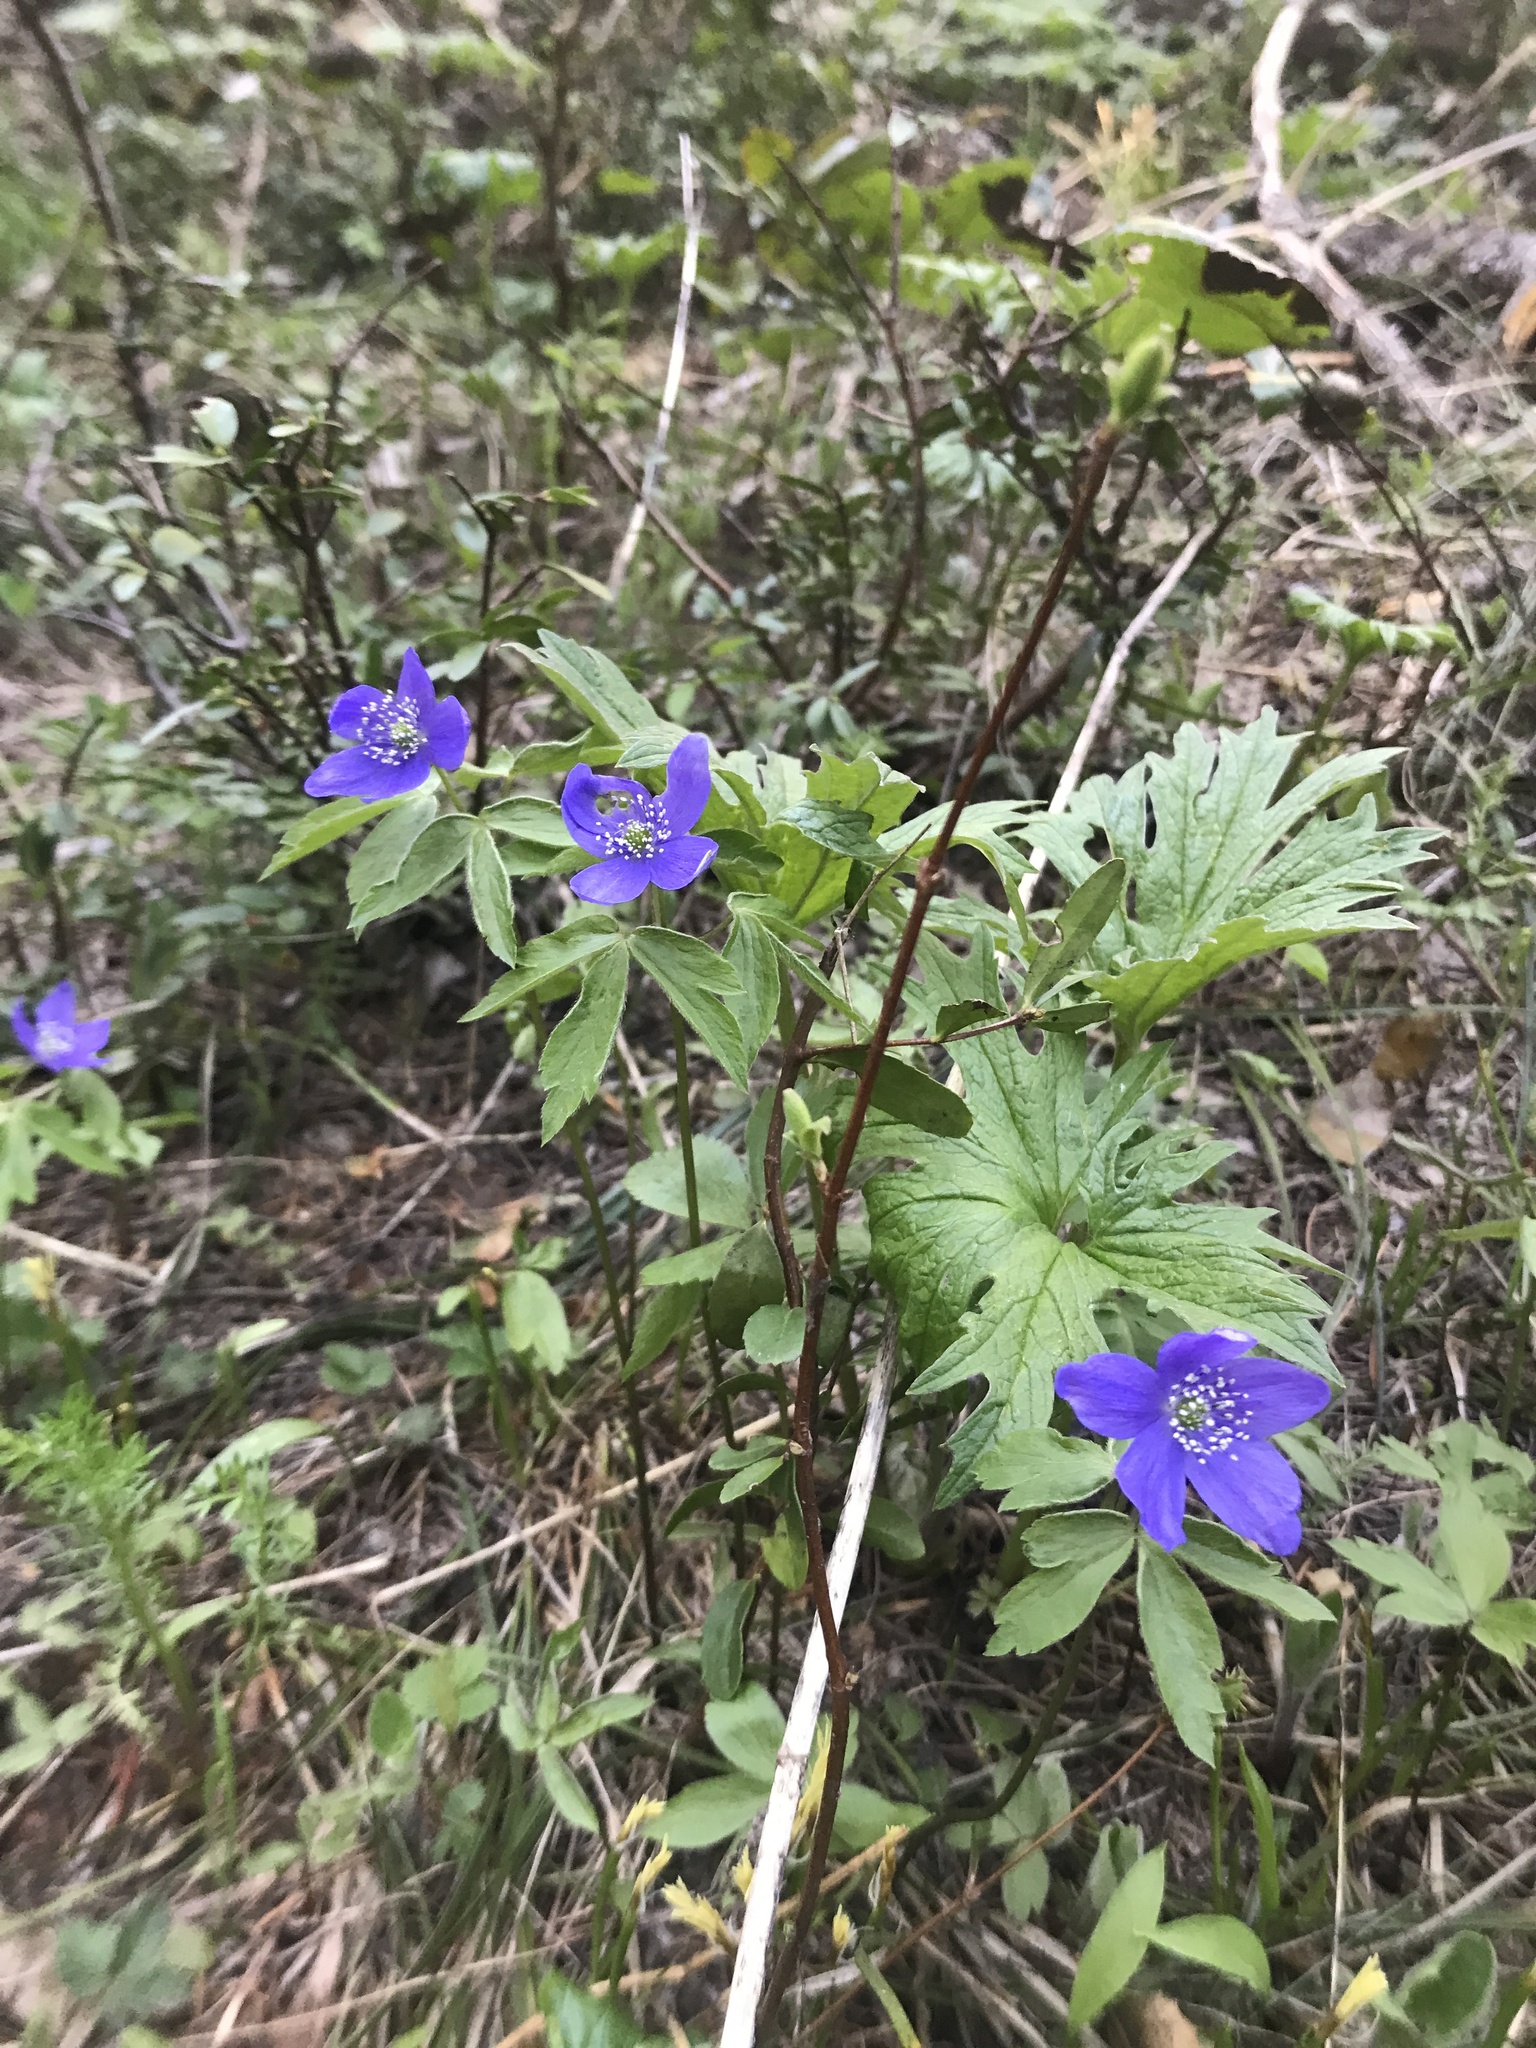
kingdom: Plantae
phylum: Tracheophyta
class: Magnoliopsida
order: Ranunculales
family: Ranunculaceae
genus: Anemone
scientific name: Anemone oregana
